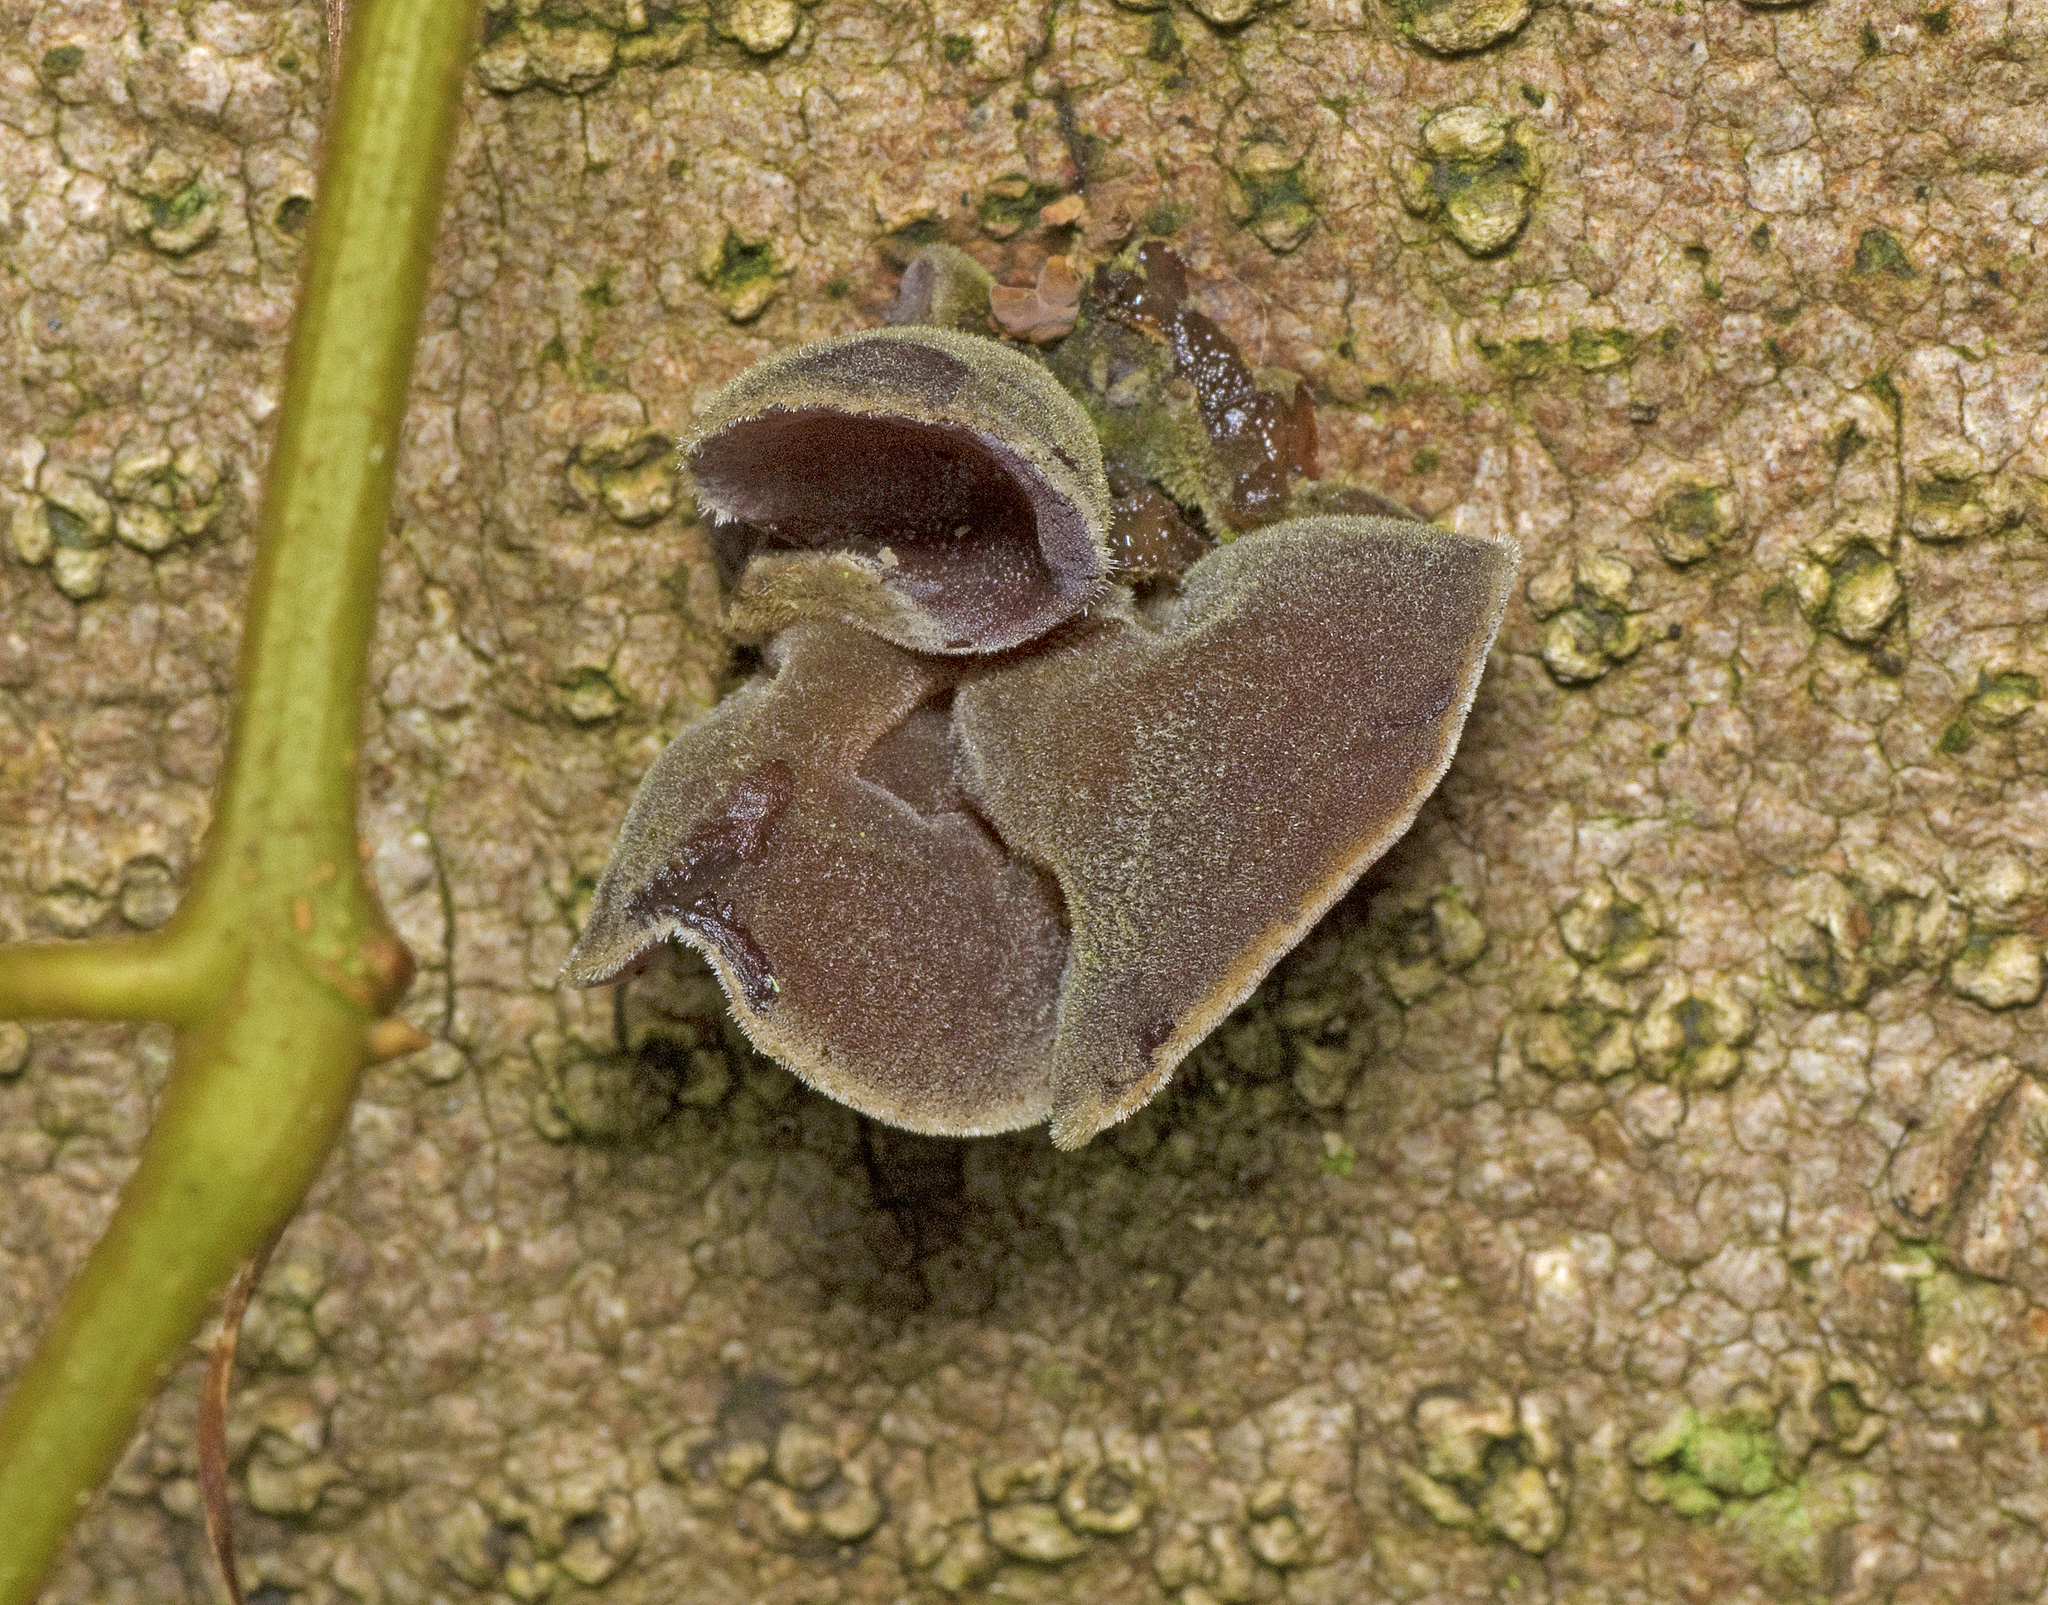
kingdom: Fungi
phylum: Basidiomycota
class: Agaricomycetes
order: Auriculariales
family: Auriculariaceae
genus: Auricularia
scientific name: Auricularia cornea
